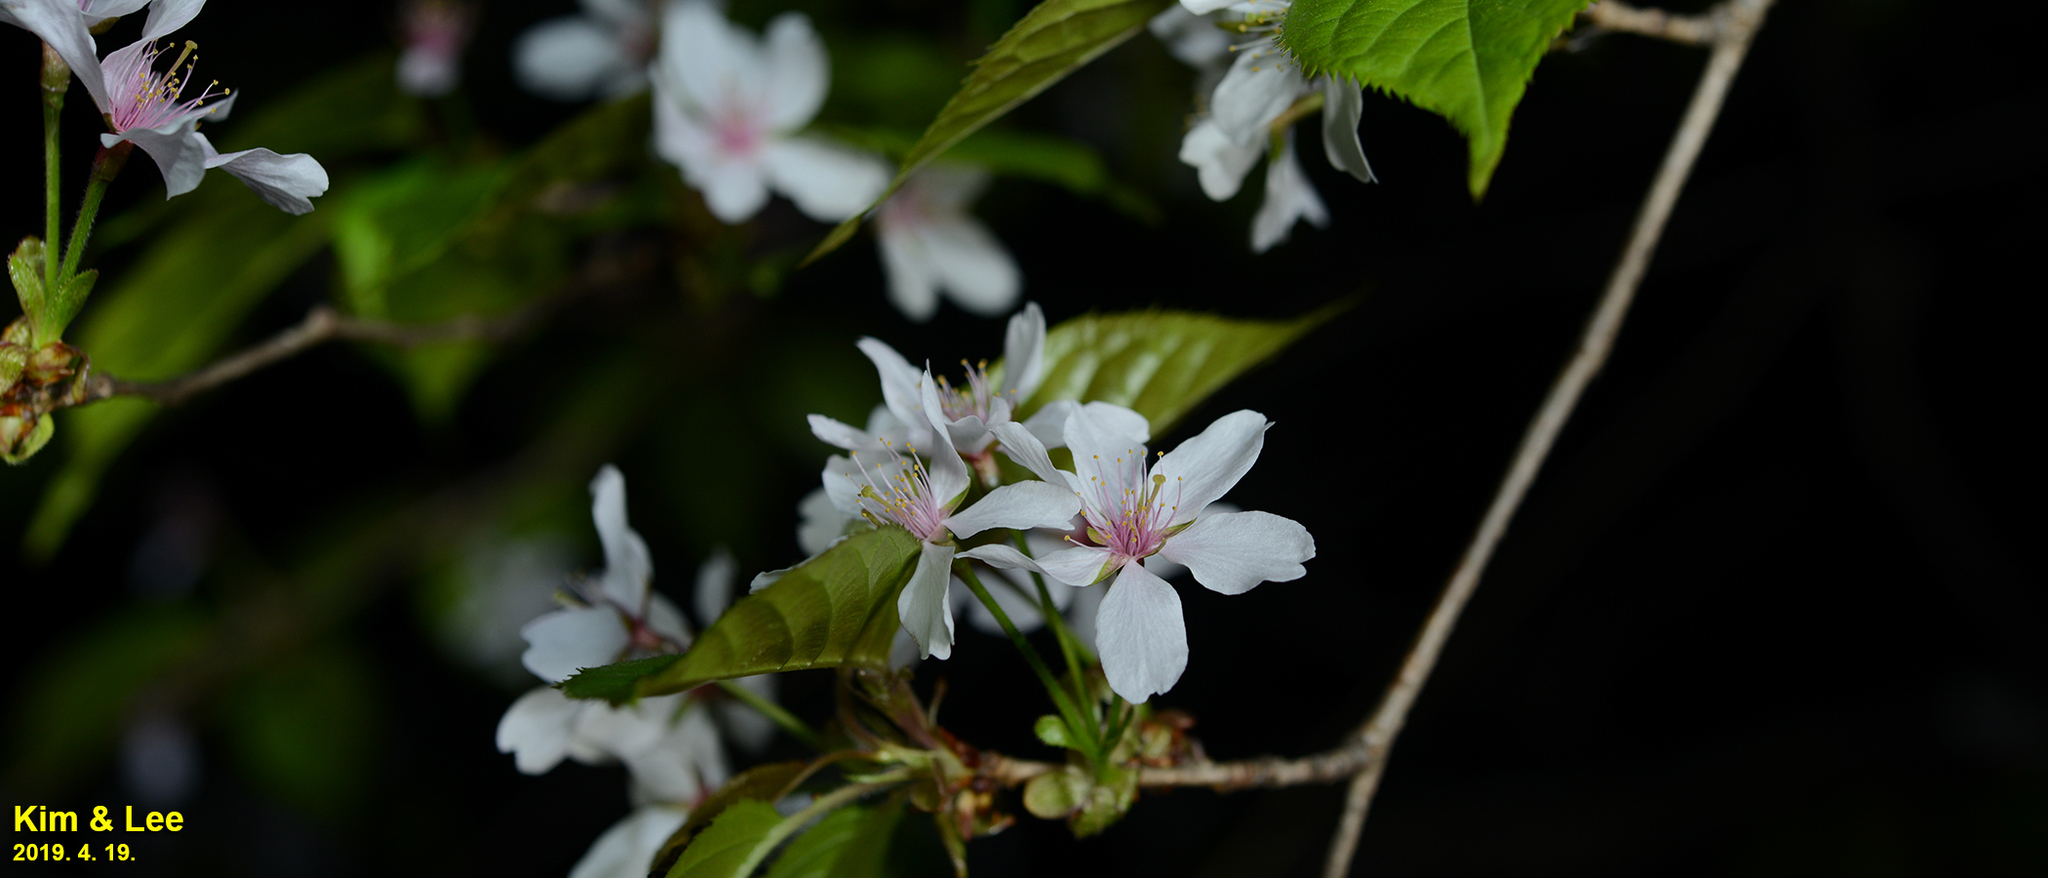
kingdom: Plantae
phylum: Tracheophyta
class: Magnoliopsida
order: Rosales
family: Rosaceae
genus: Prunus
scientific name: Prunus serrulata
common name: Japanese cherry
